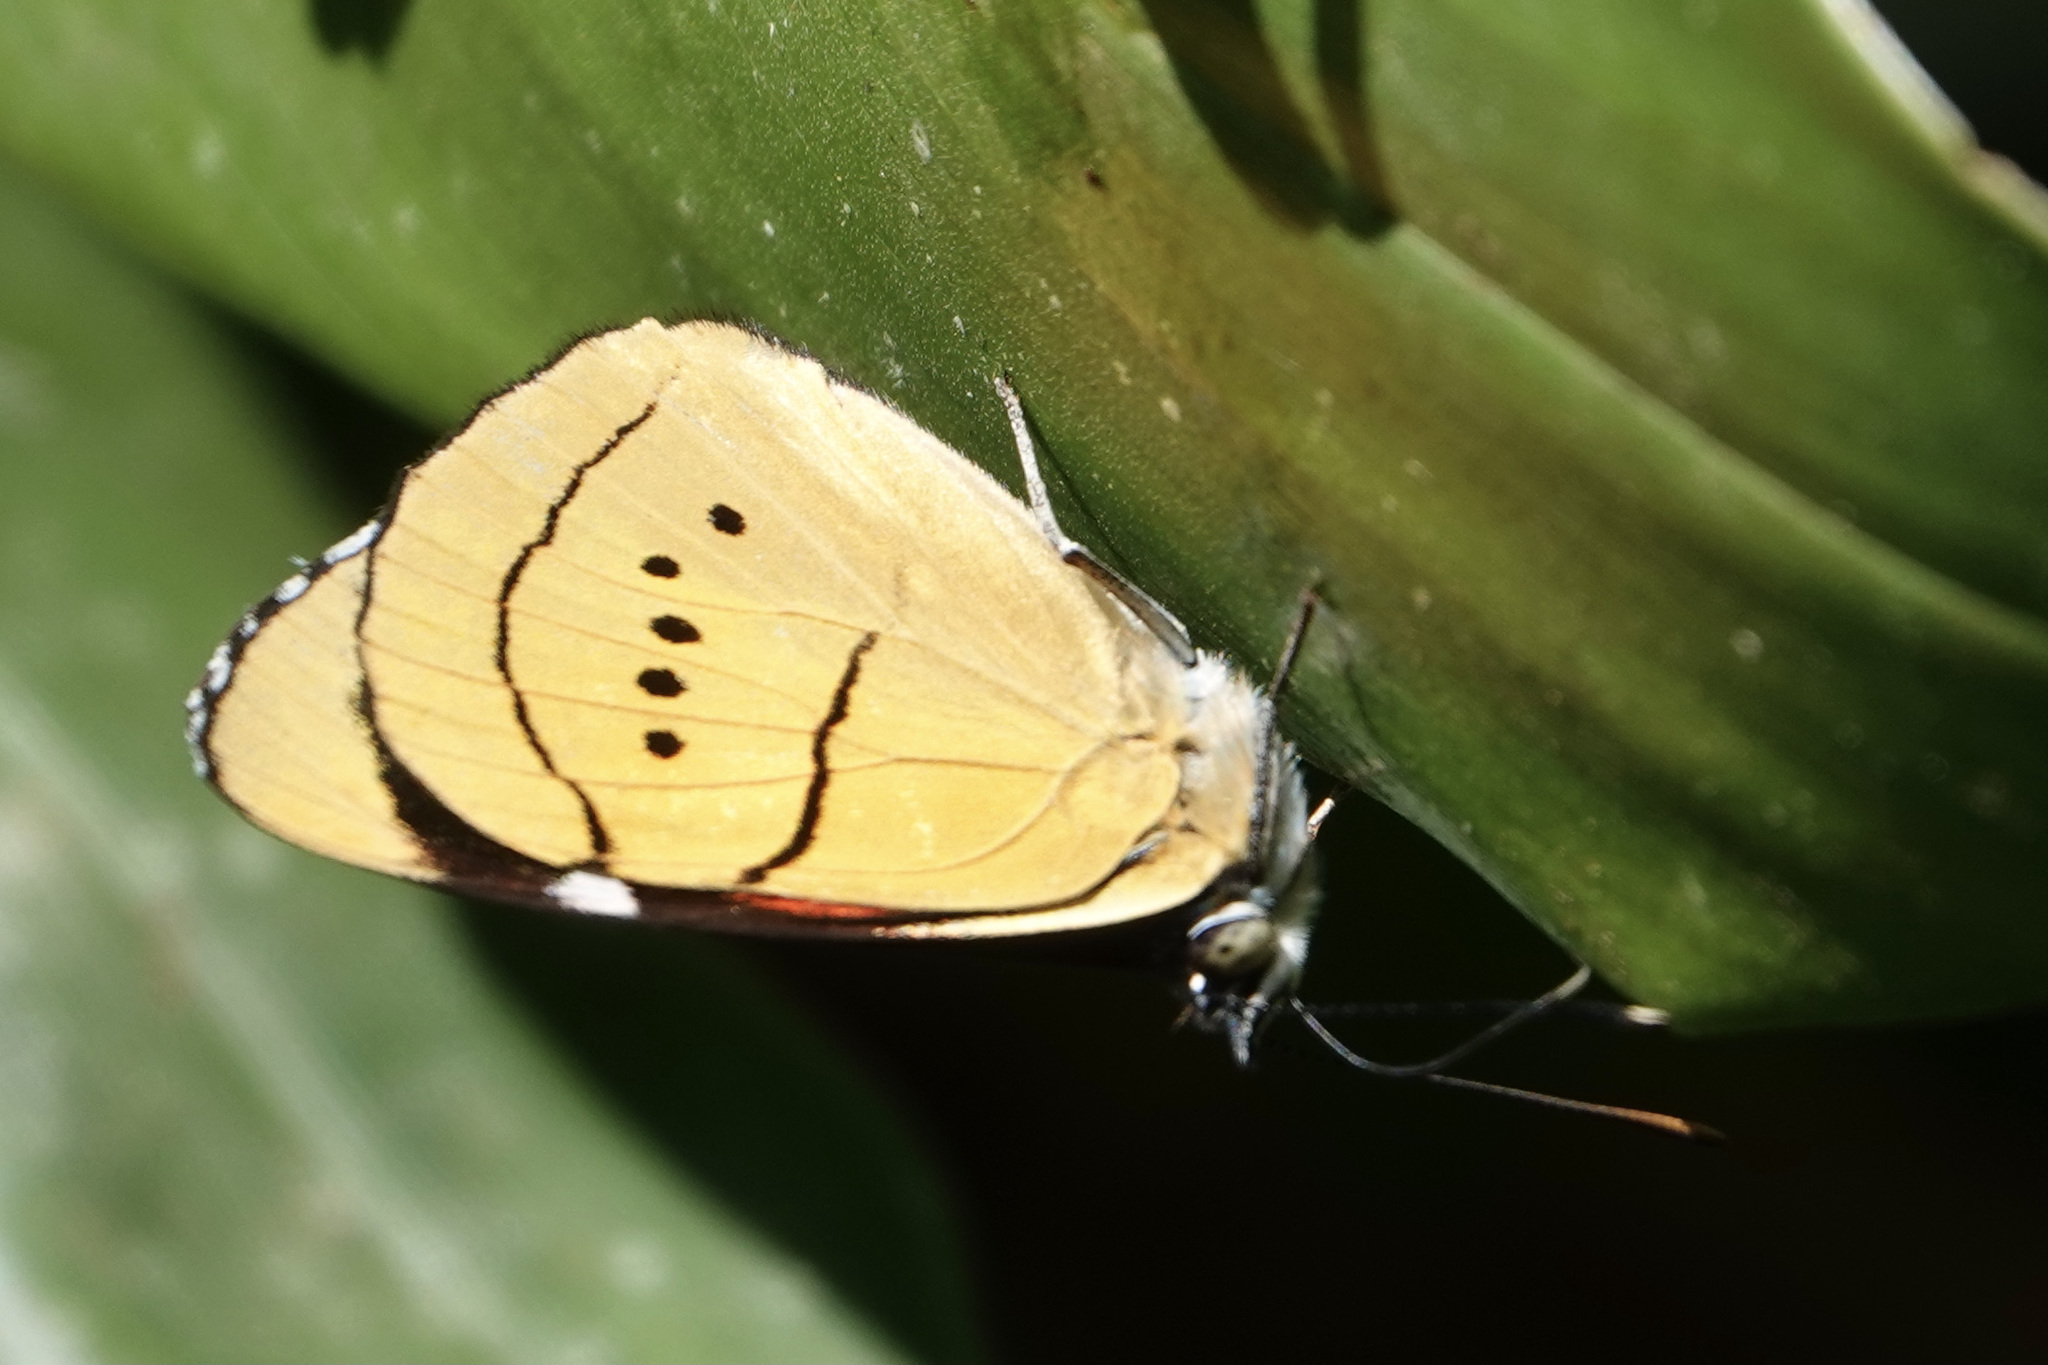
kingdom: Animalia
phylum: Arthropoda
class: Insecta
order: Lepidoptera
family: Nymphalidae
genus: Perisama
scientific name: Perisama humboldtii
